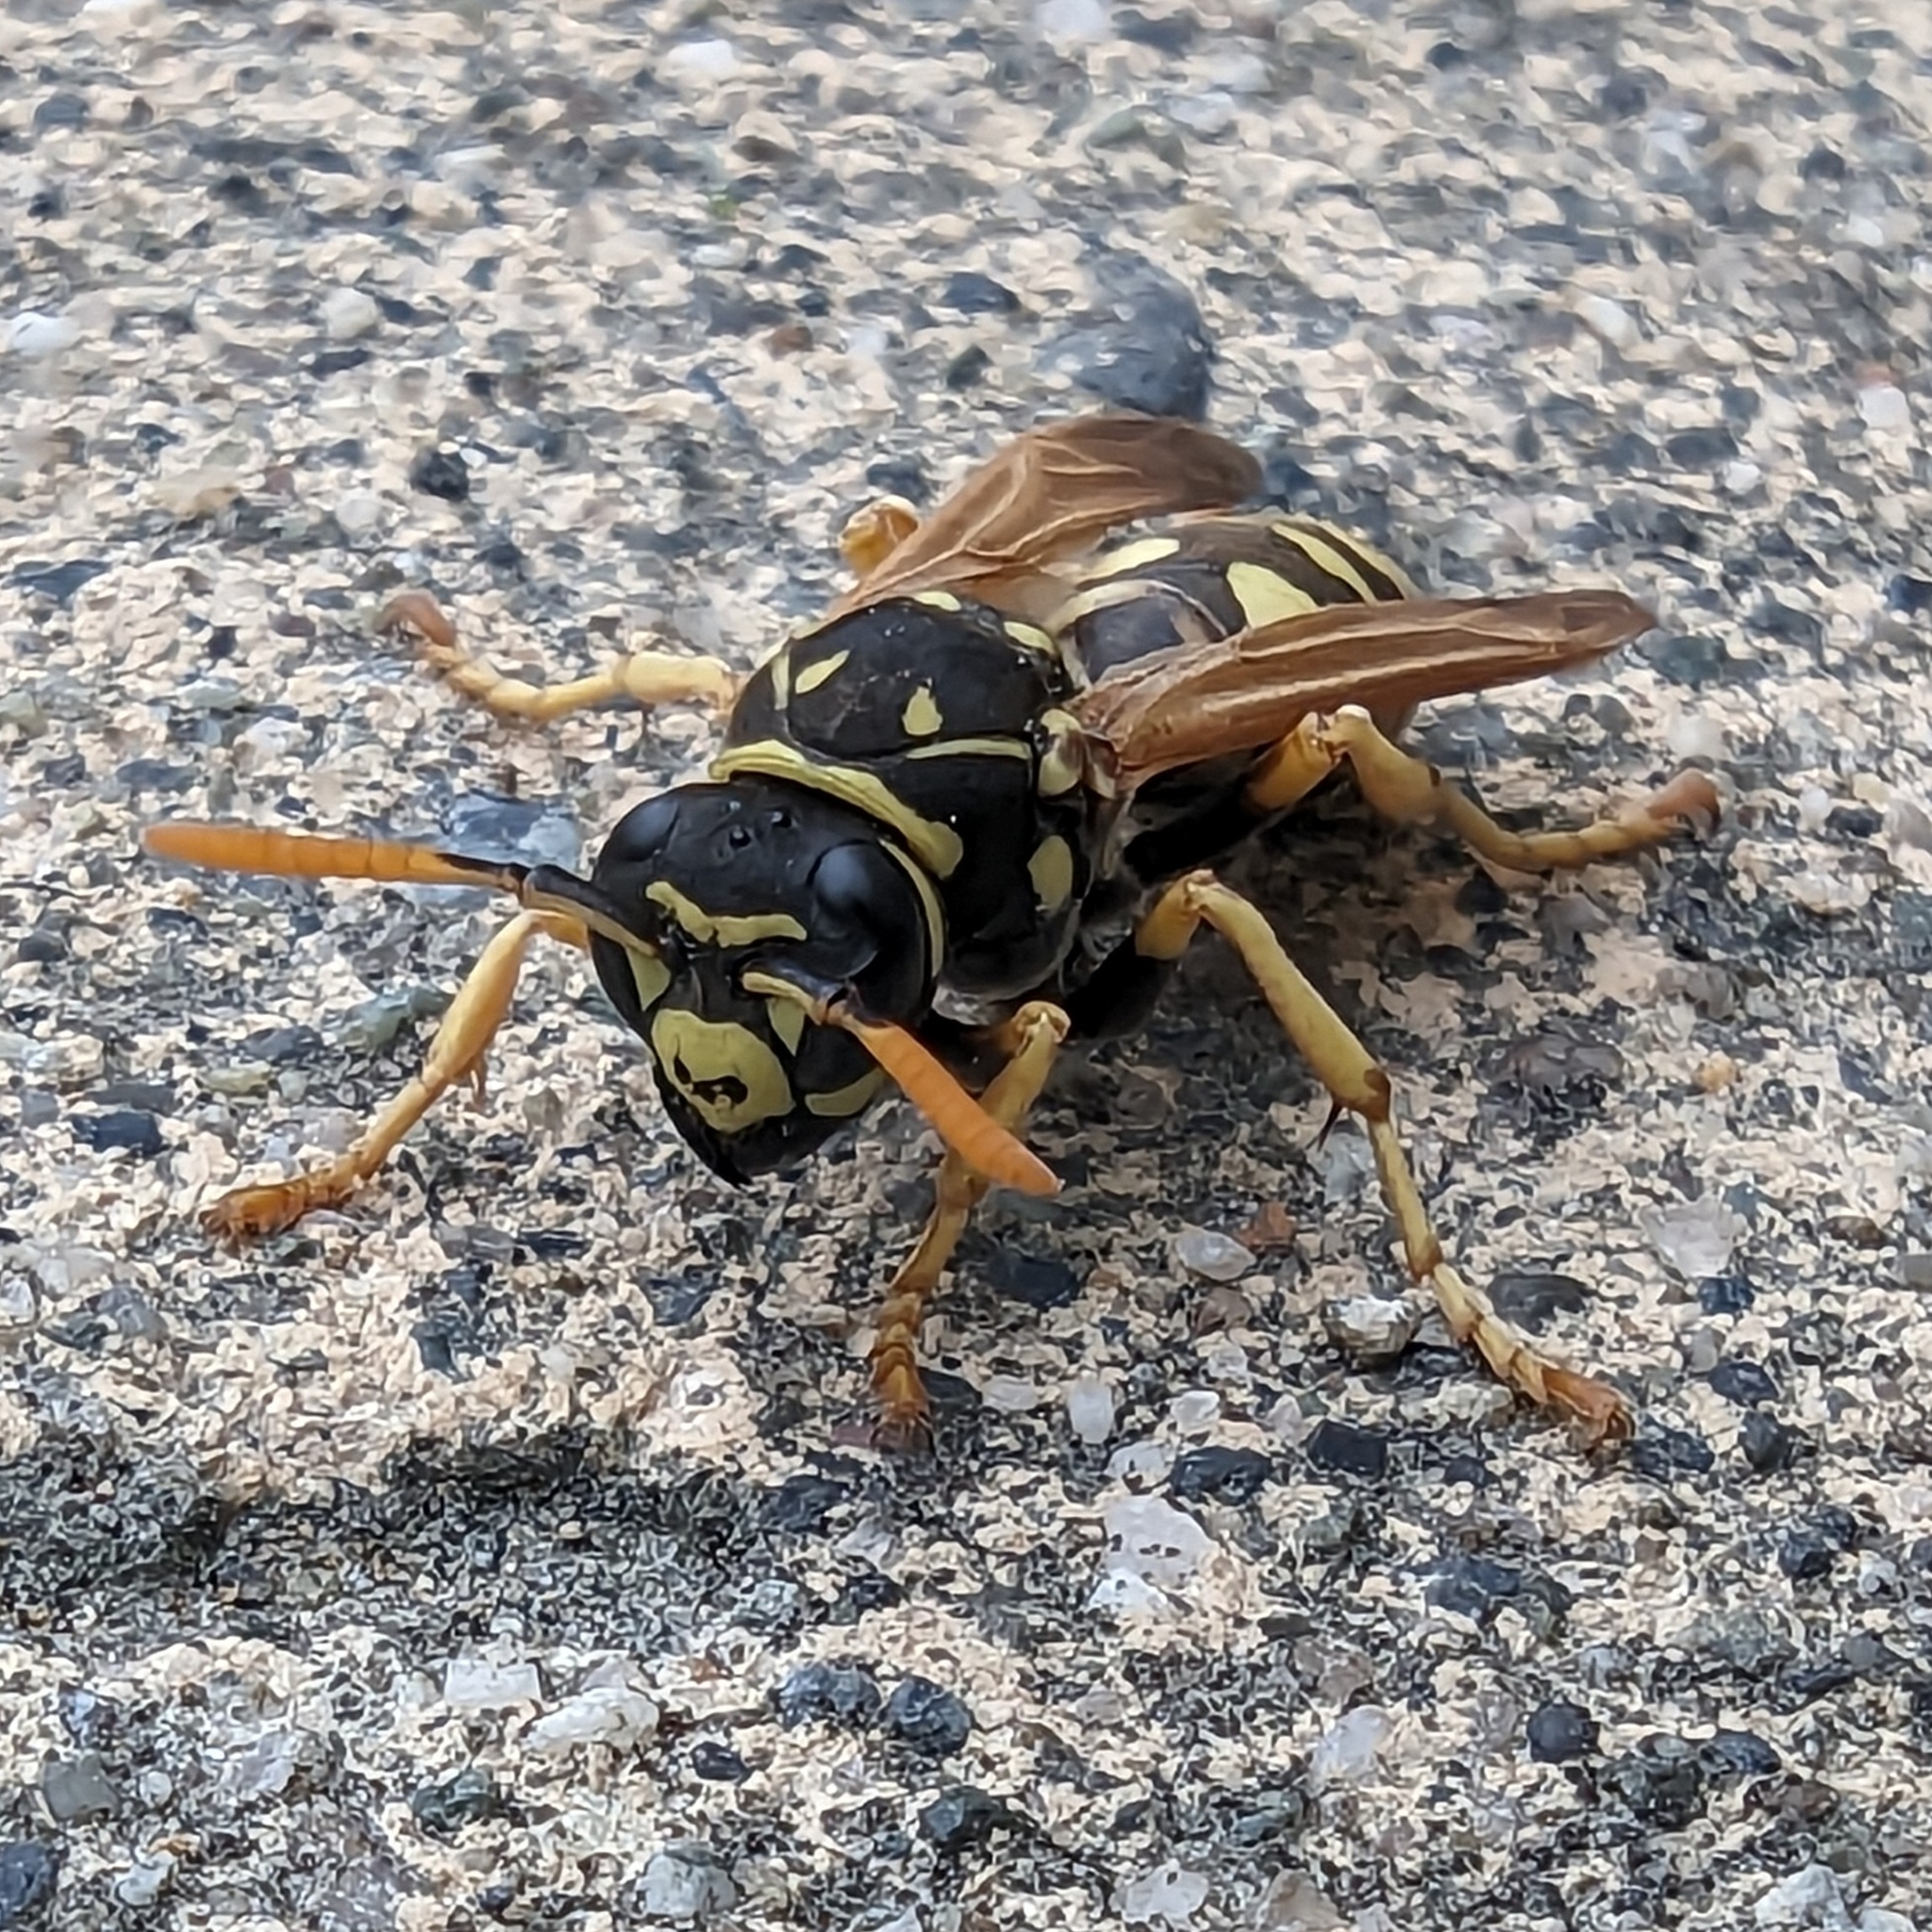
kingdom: Animalia
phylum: Arthropoda
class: Insecta
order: Hymenoptera
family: Eumenidae
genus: Polistes
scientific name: Polistes dominula
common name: Paper wasp
